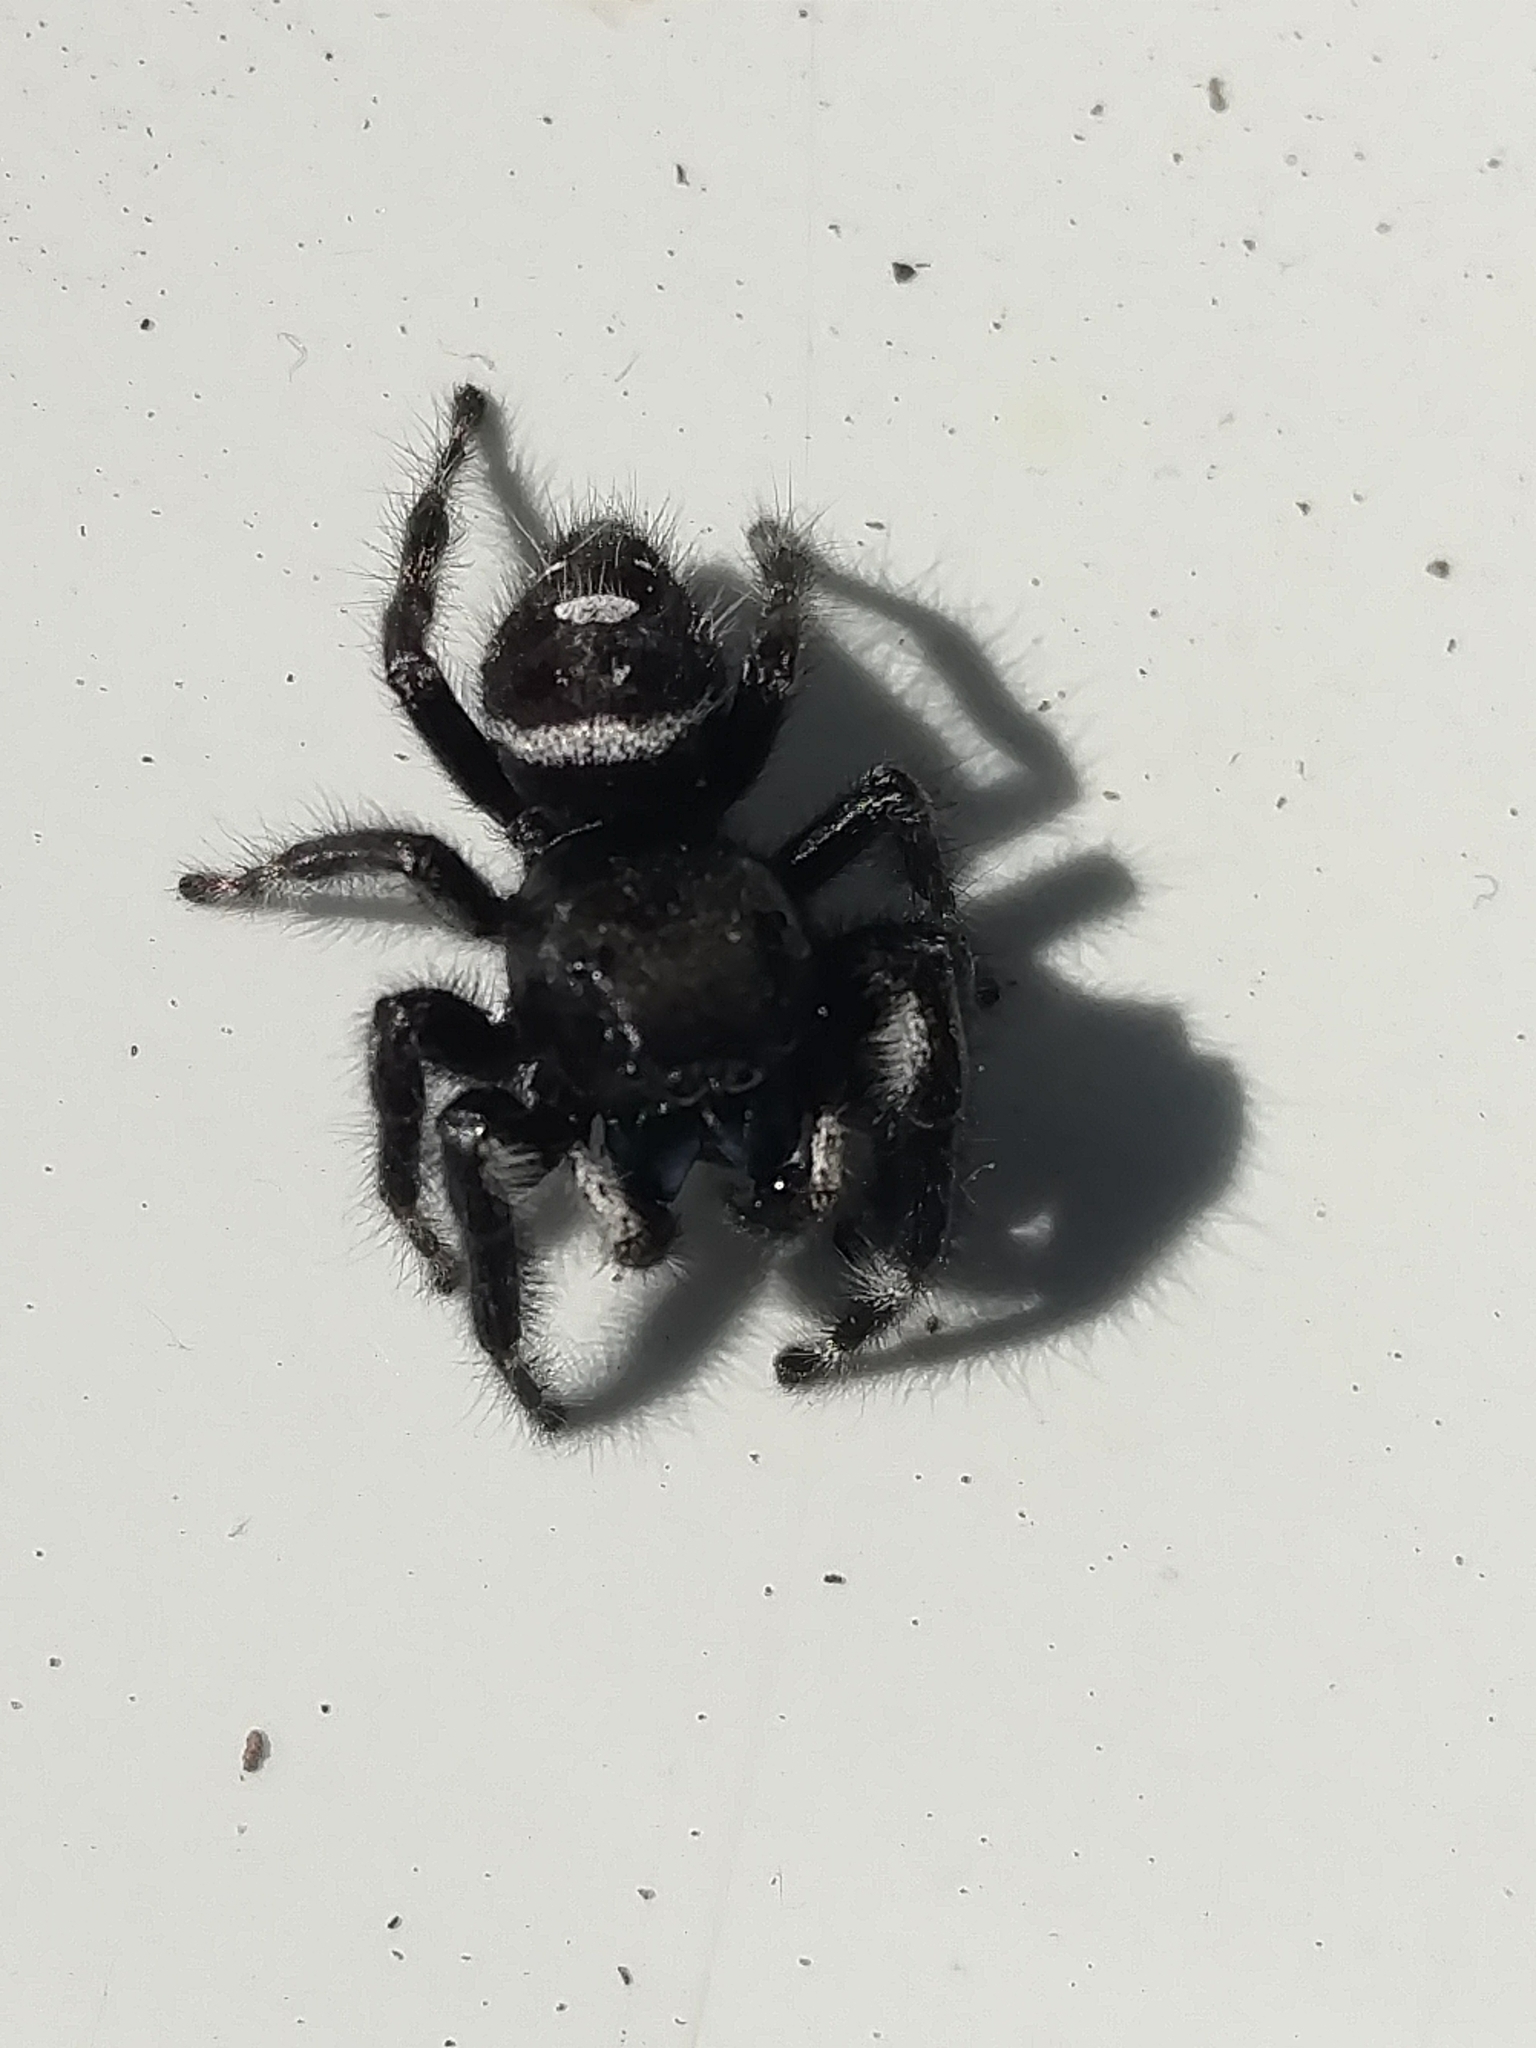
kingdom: Animalia
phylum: Arthropoda
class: Arachnida
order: Araneae
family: Salticidae
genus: Phidippus
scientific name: Phidippus audax
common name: Bold jumper
